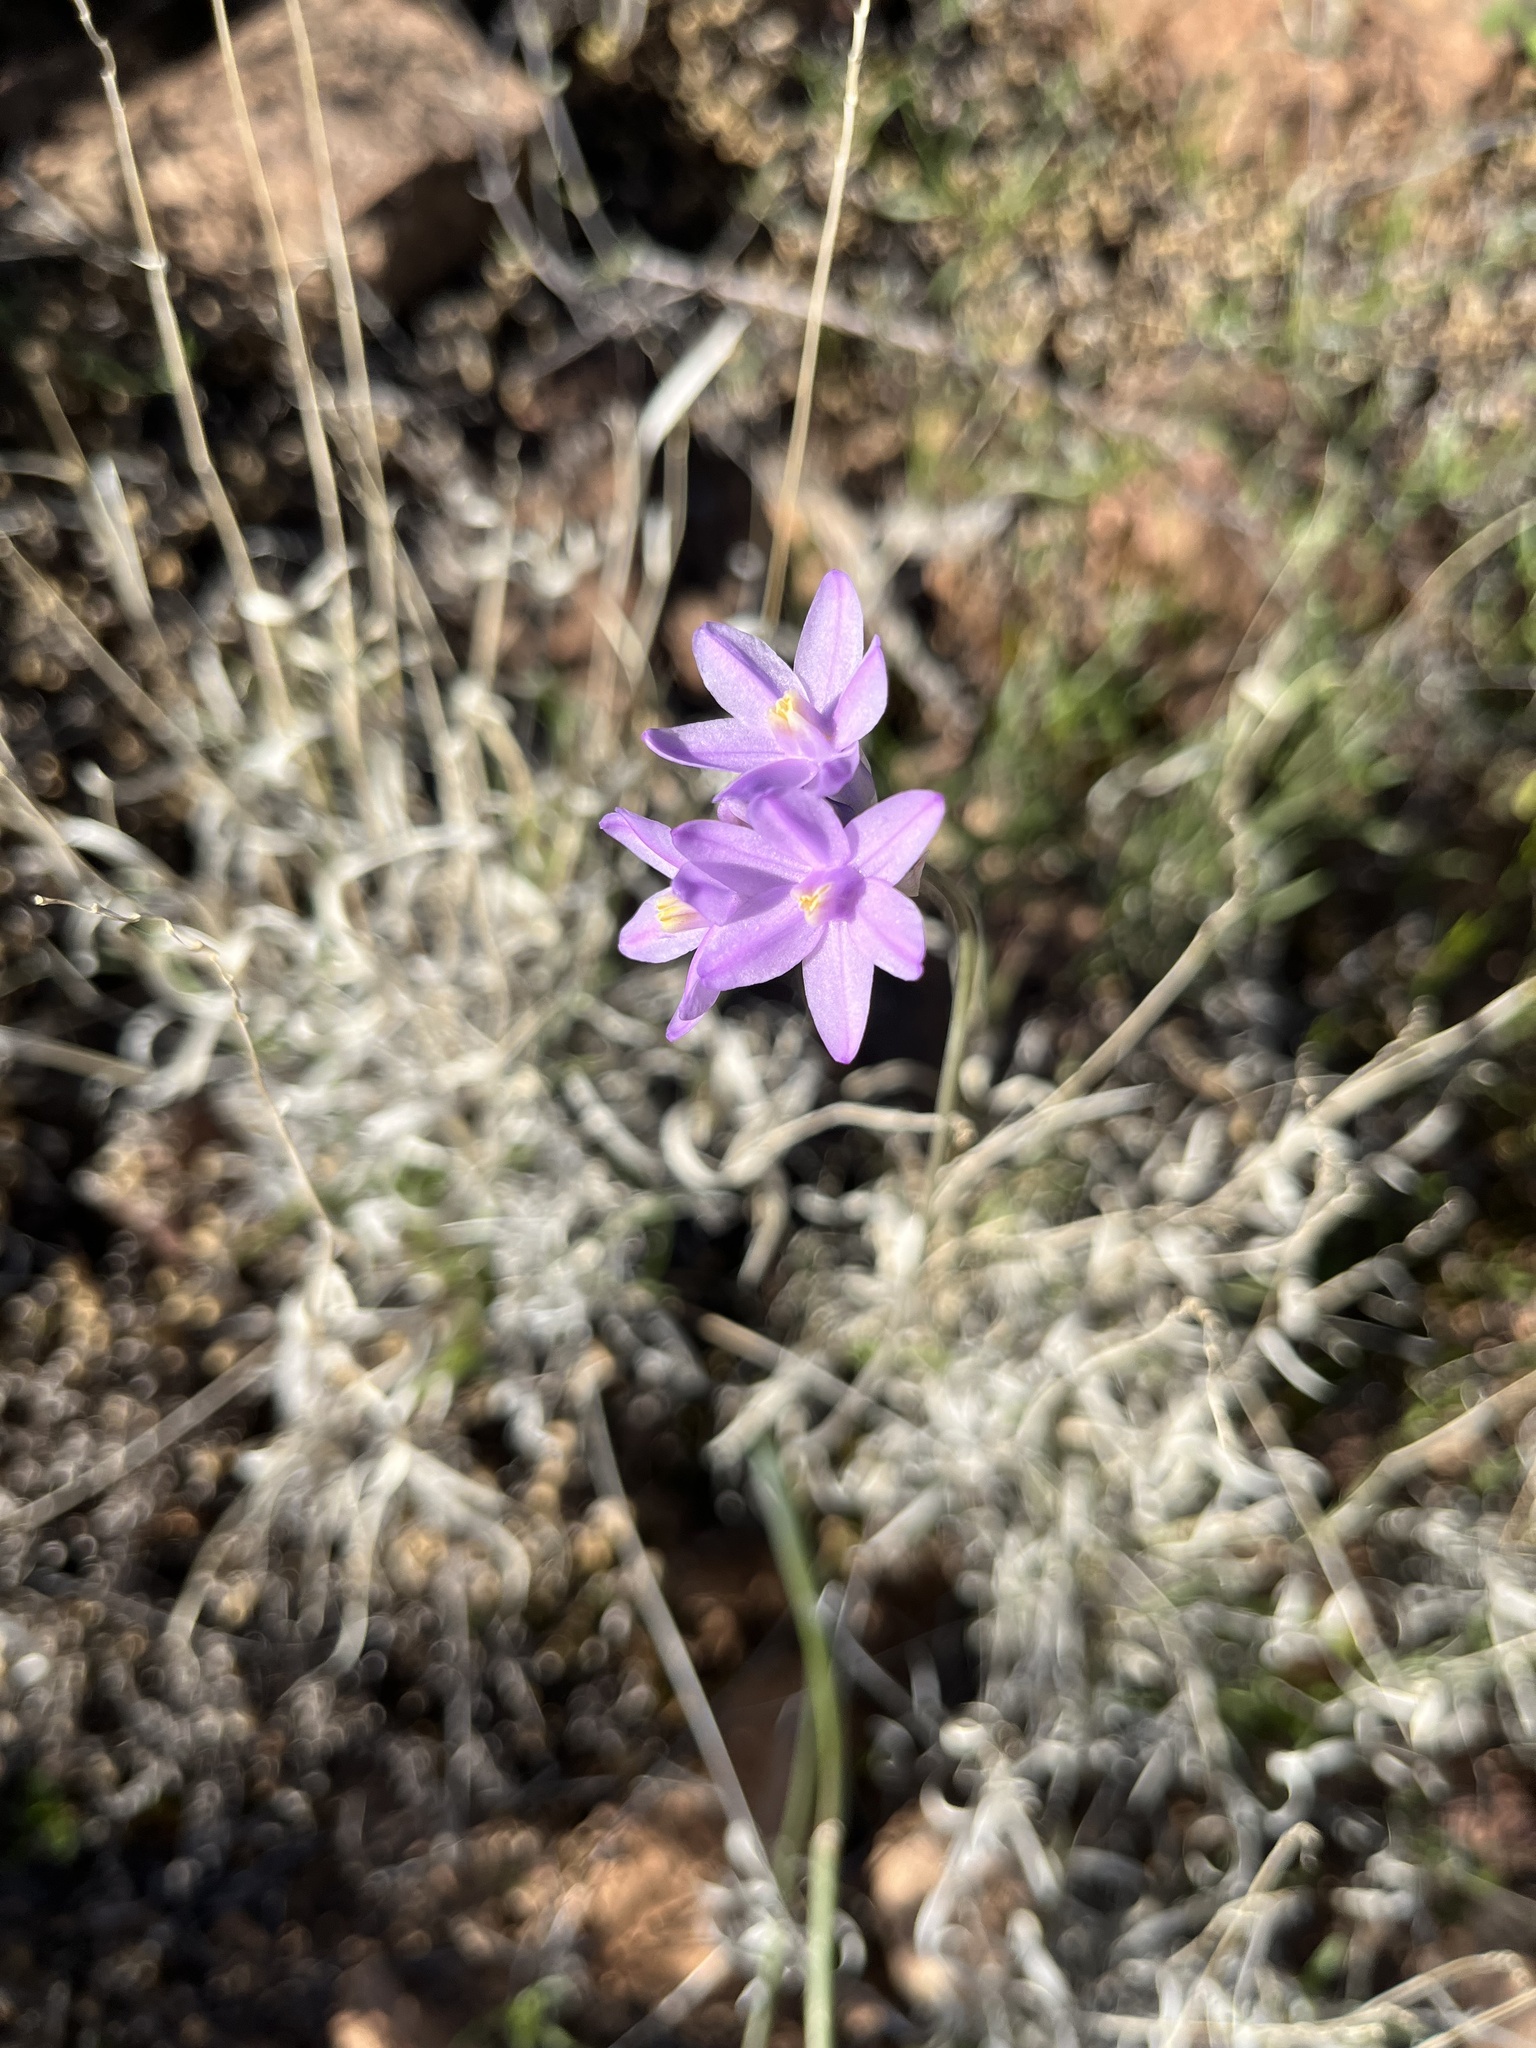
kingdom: Plantae
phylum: Tracheophyta
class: Liliopsida
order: Asparagales
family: Asparagaceae
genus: Dipterostemon
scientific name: Dipterostemon capitatus
